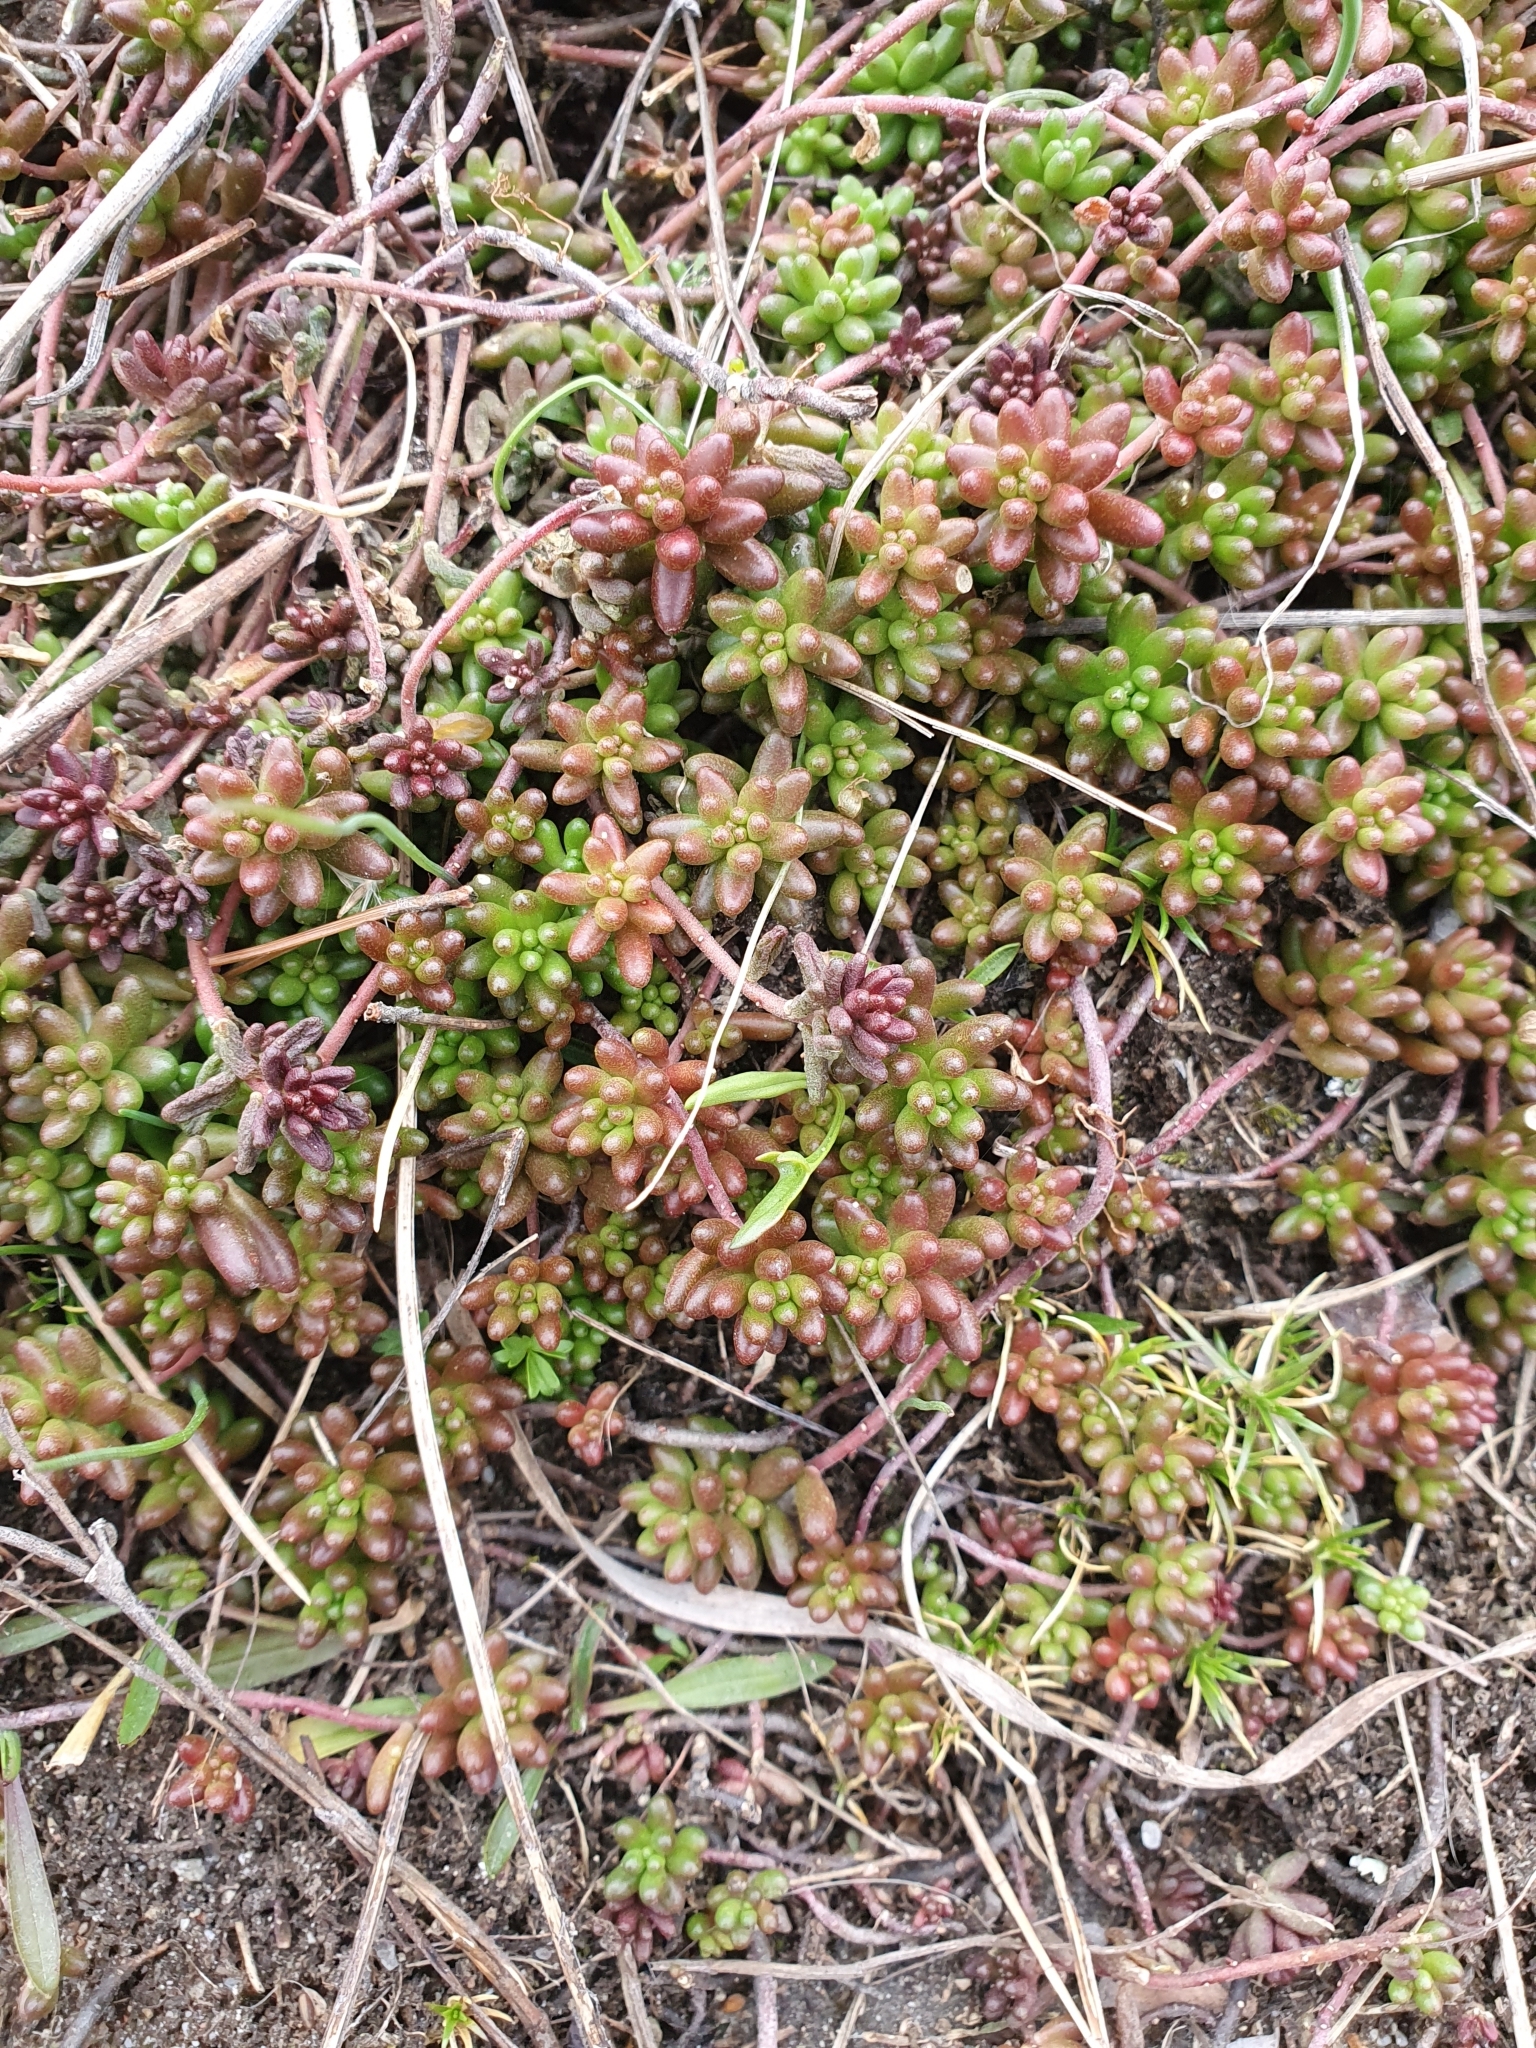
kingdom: Plantae
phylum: Tracheophyta
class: Magnoliopsida
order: Saxifragales
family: Crassulaceae
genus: Sedum
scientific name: Sedum album
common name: White stonecrop
